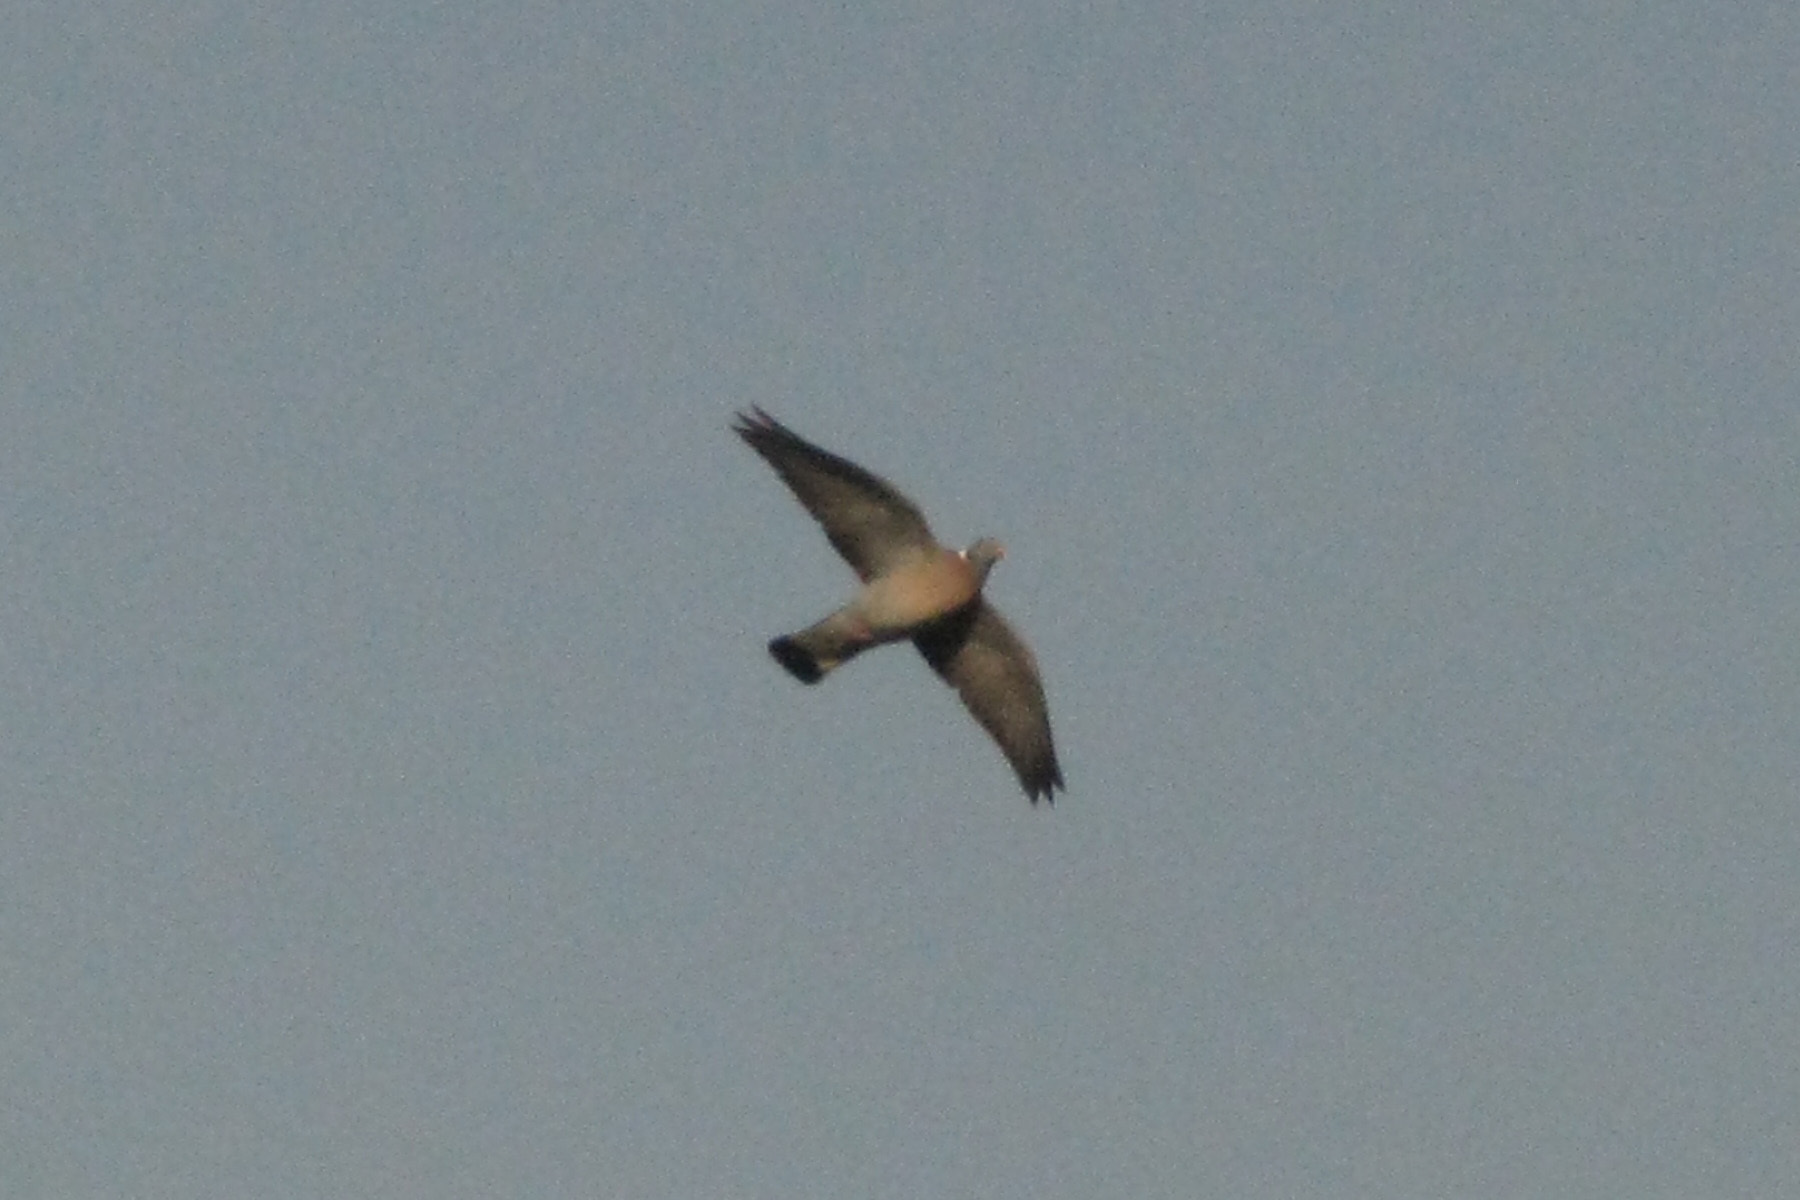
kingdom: Animalia
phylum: Chordata
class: Aves
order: Columbiformes
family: Columbidae
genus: Columba
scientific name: Columba palumbus
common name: Common wood pigeon
